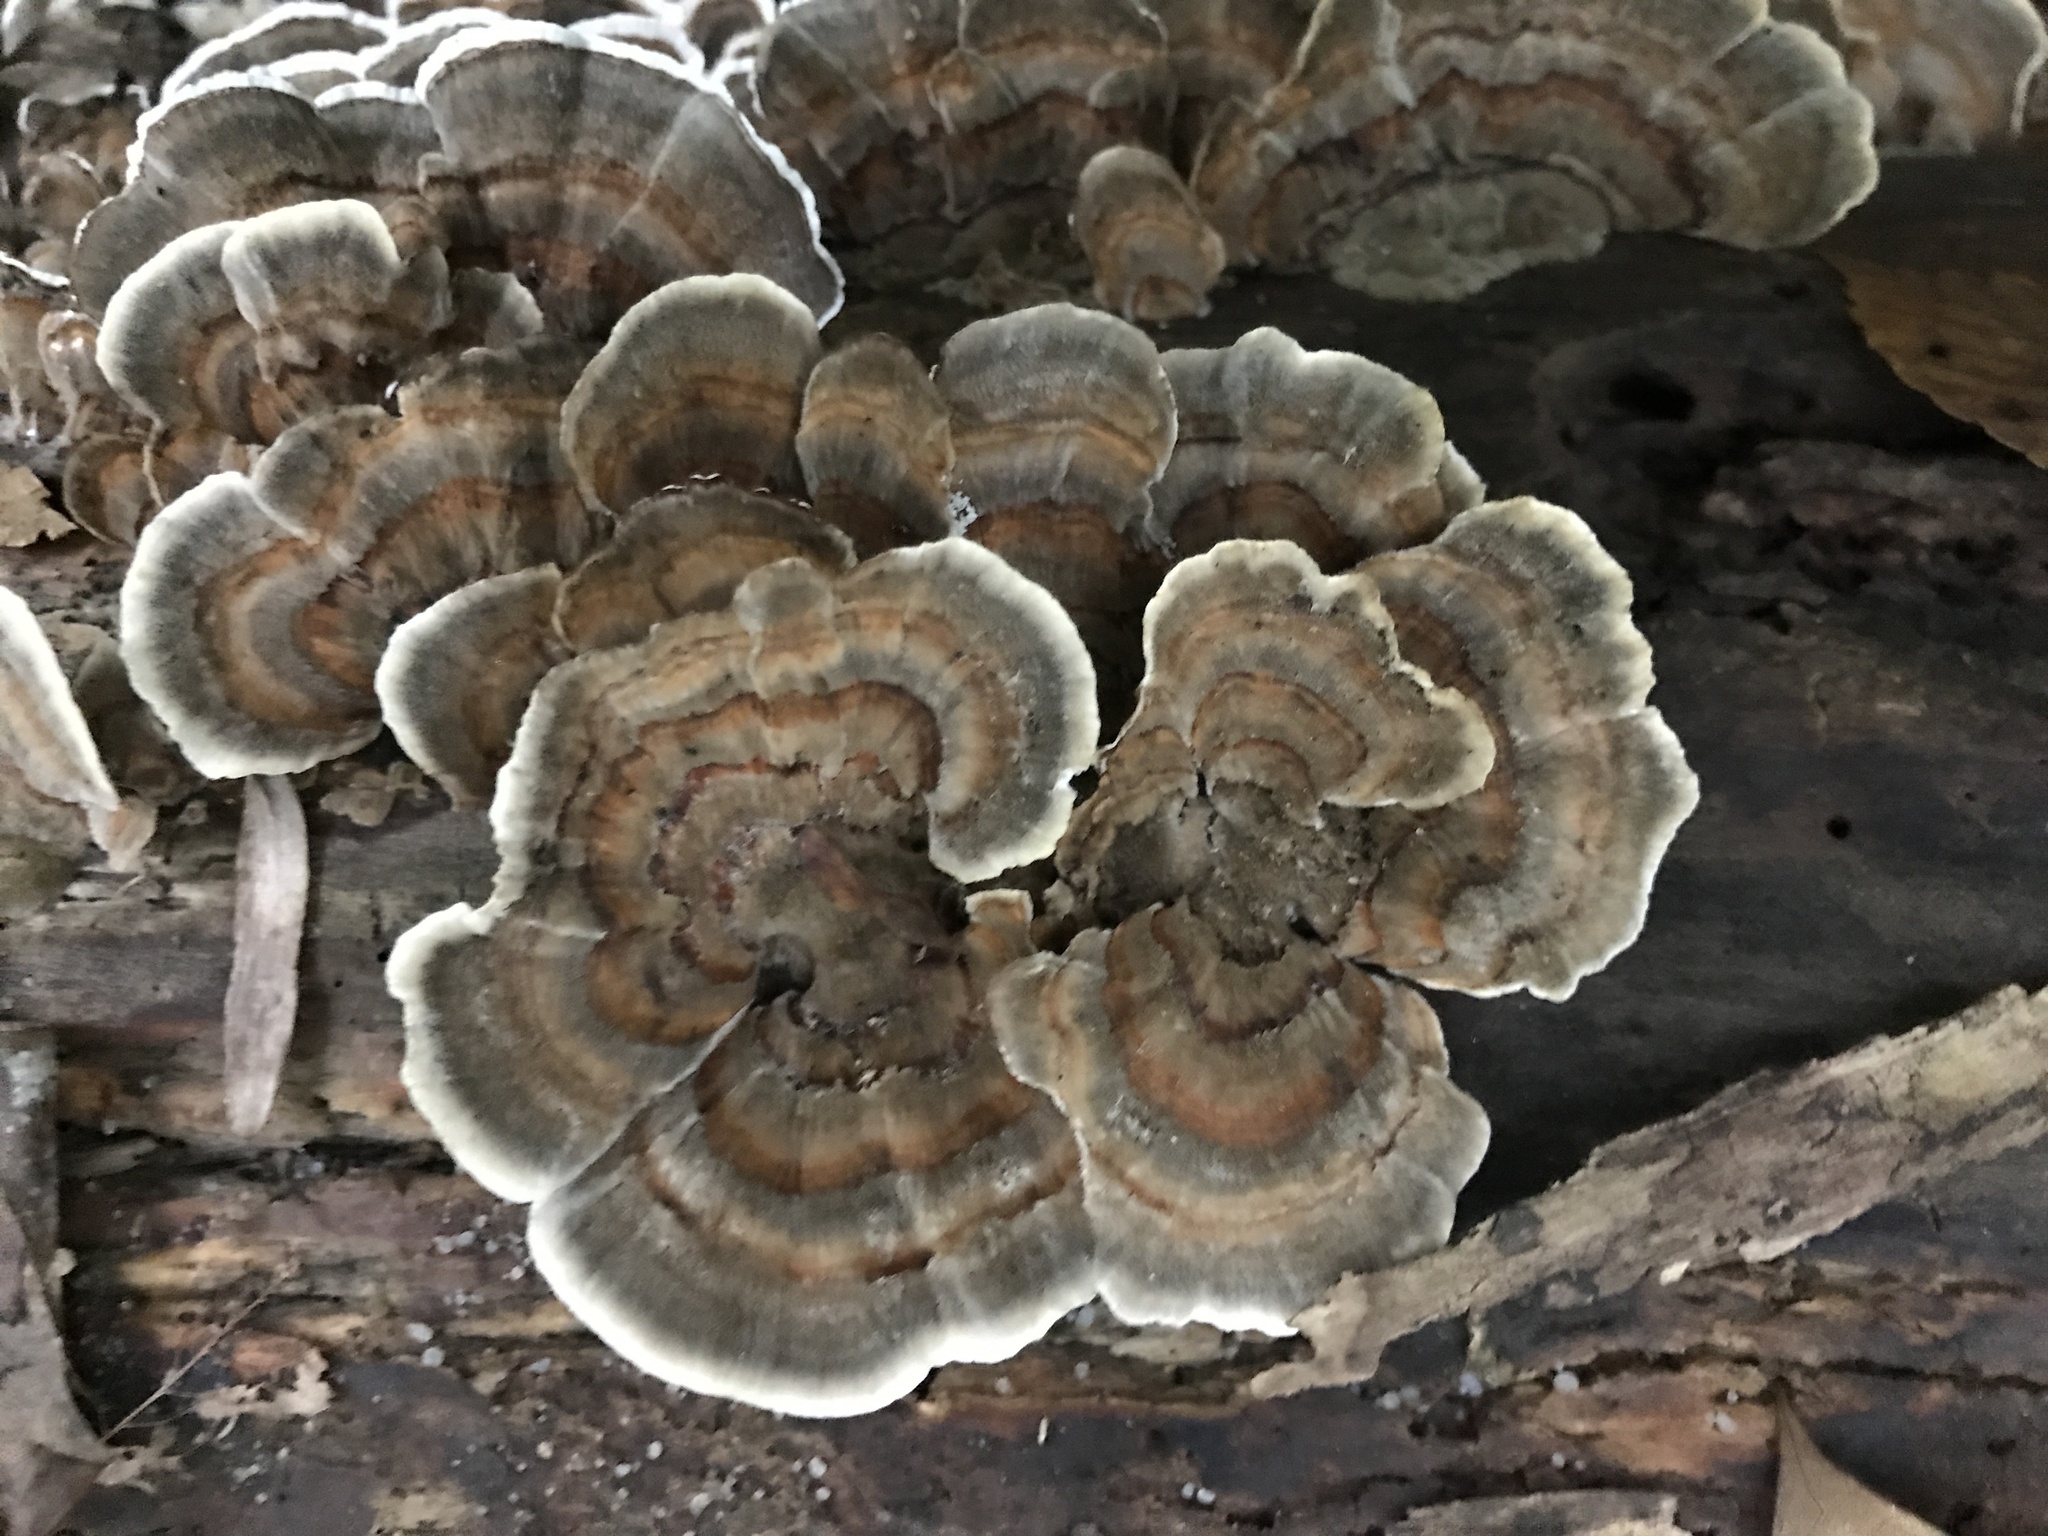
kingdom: Fungi
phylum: Basidiomycota
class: Agaricomycetes
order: Polyporales
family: Polyporaceae
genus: Trametes
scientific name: Trametes versicolor
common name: Turkeytail
